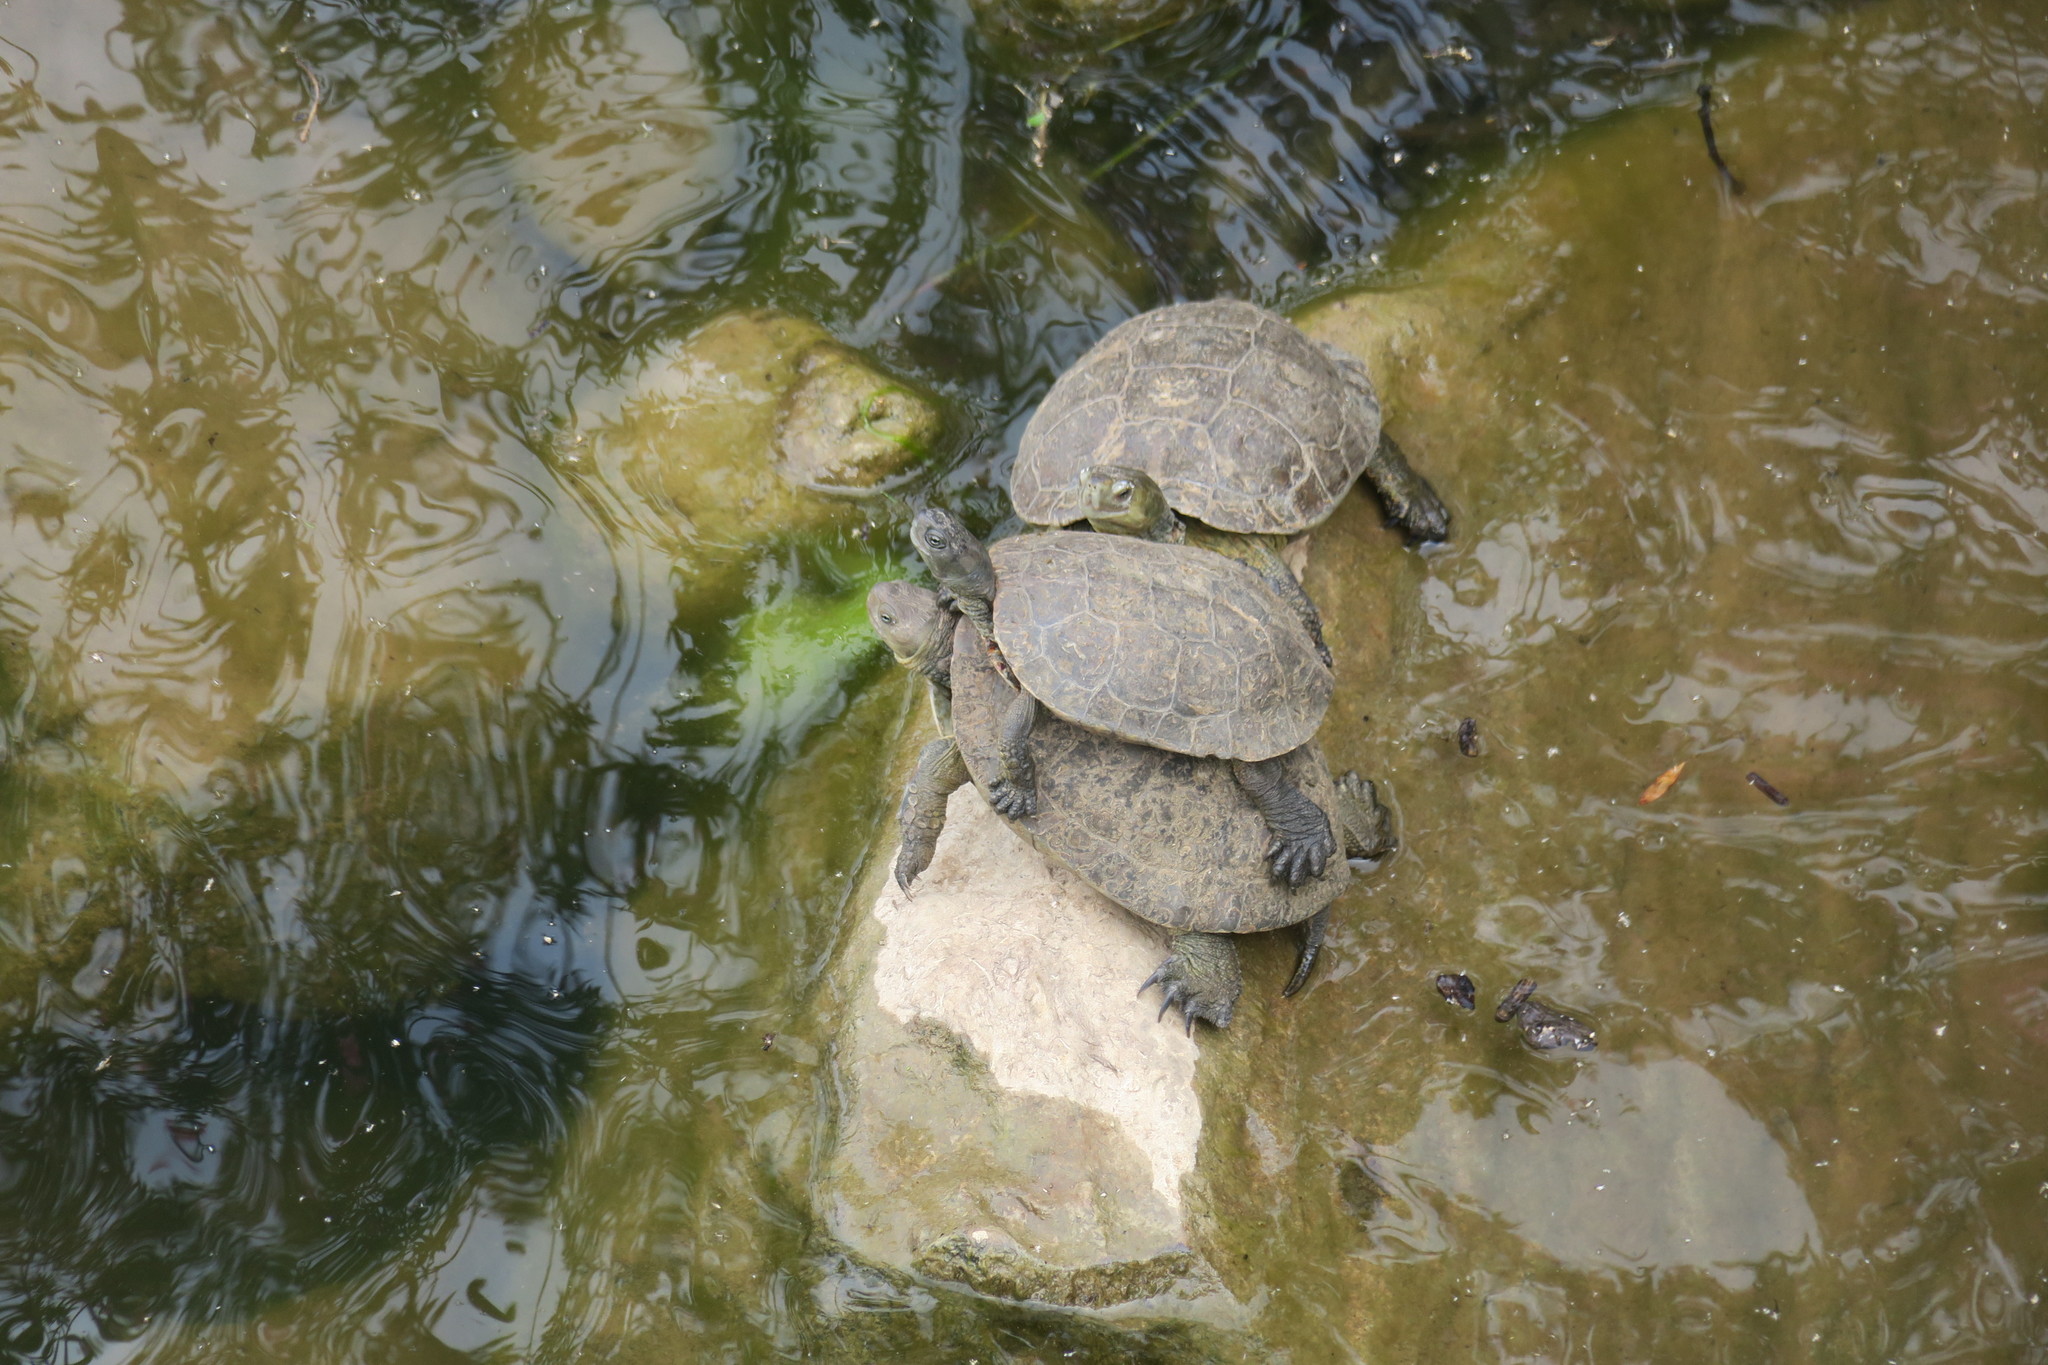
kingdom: Animalia
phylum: Chordata
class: Testudines
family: Geoemydidae
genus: Mauremys
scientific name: Mauremys leprosa
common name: Mediterranean pond turtle
